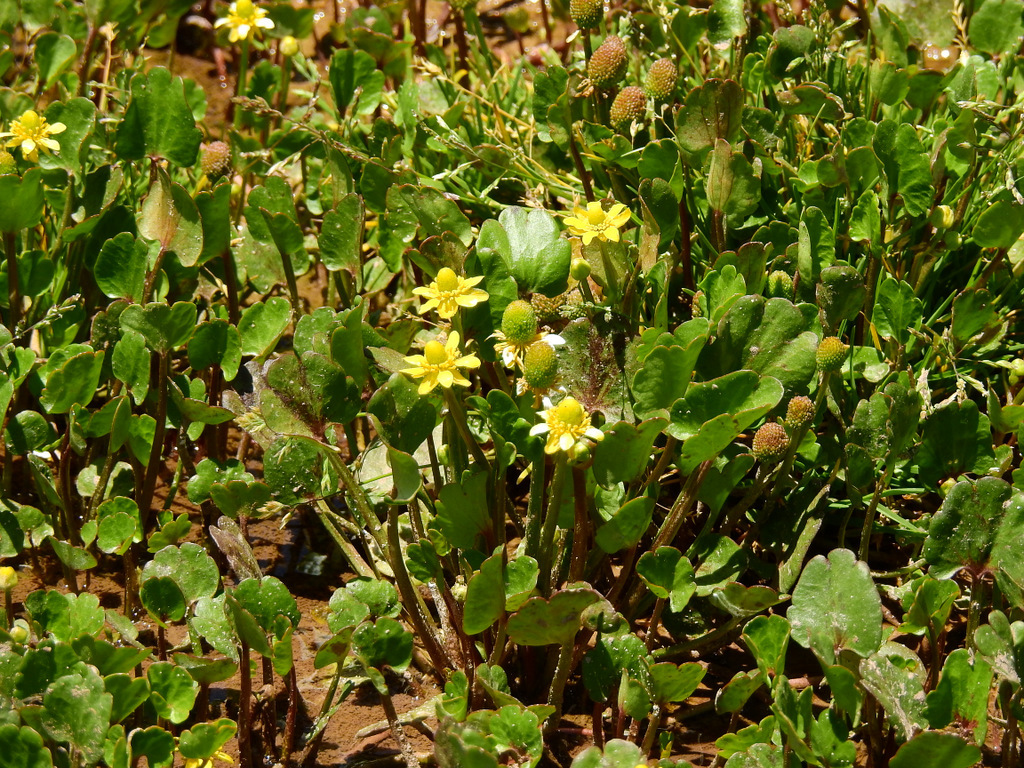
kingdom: Plantae
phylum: Tracheophyta
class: Magnoliopsida
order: Ranunculales
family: Ranunculaceae
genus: Halerpestes
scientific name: Halerpestes cymbalaria
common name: Seaside crowfoot
